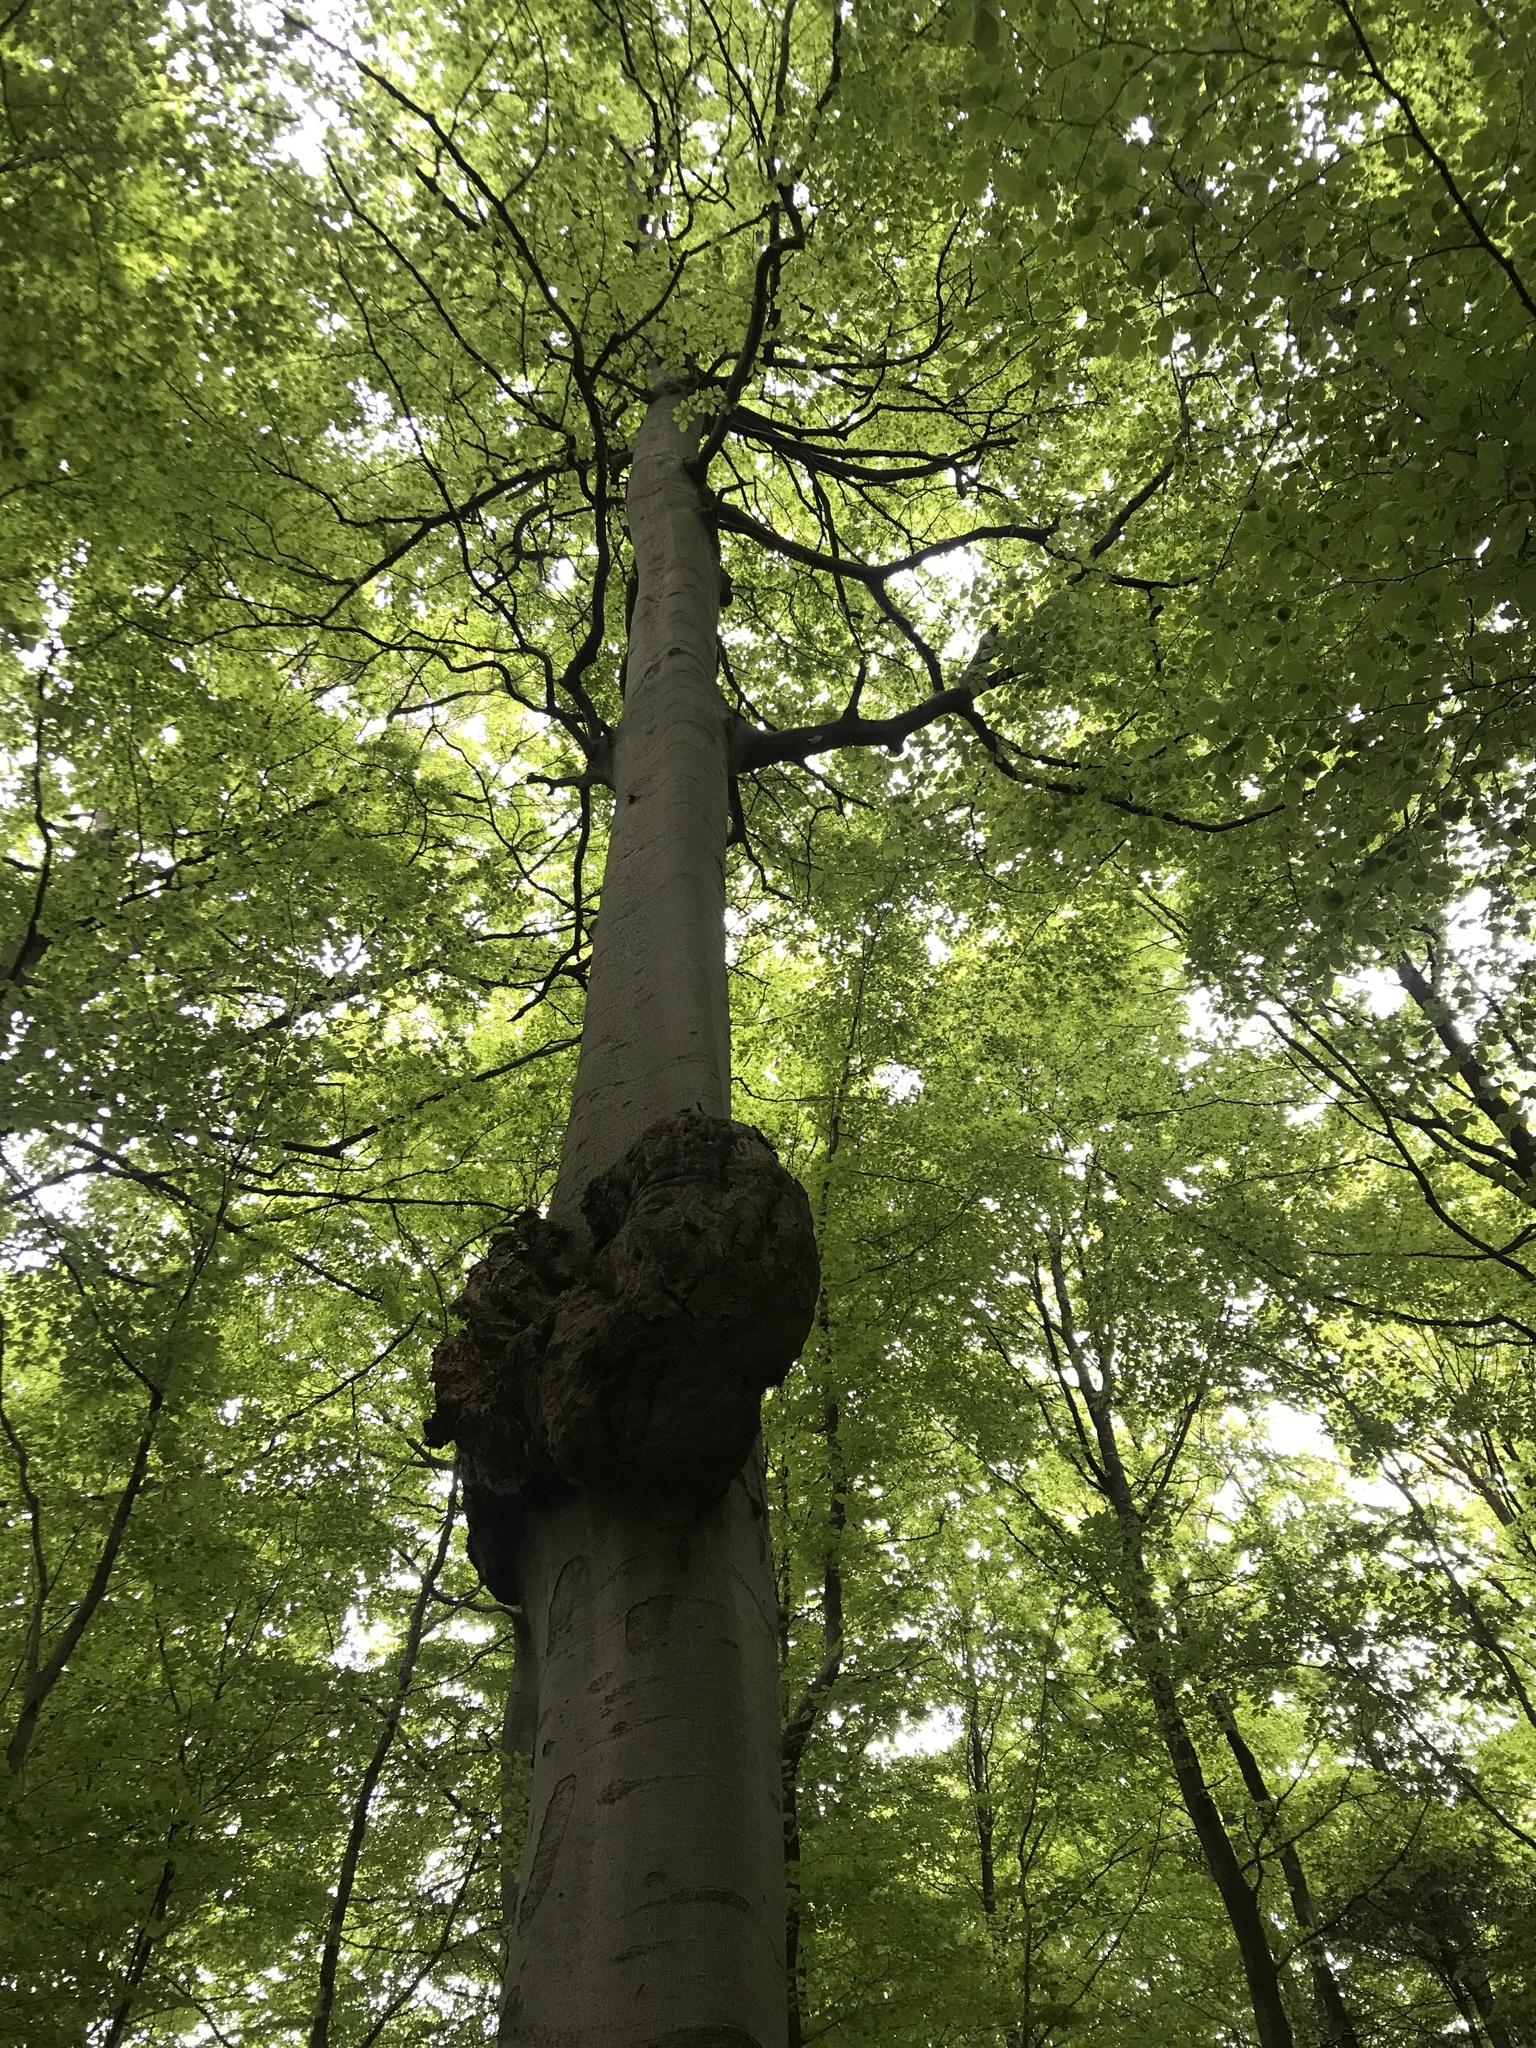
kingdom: Plantae
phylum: Tracheophyta
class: Magnoliopsida
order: Fagales
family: Fagaceae
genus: Fagus
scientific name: Fagus sylvatica
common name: Beech
